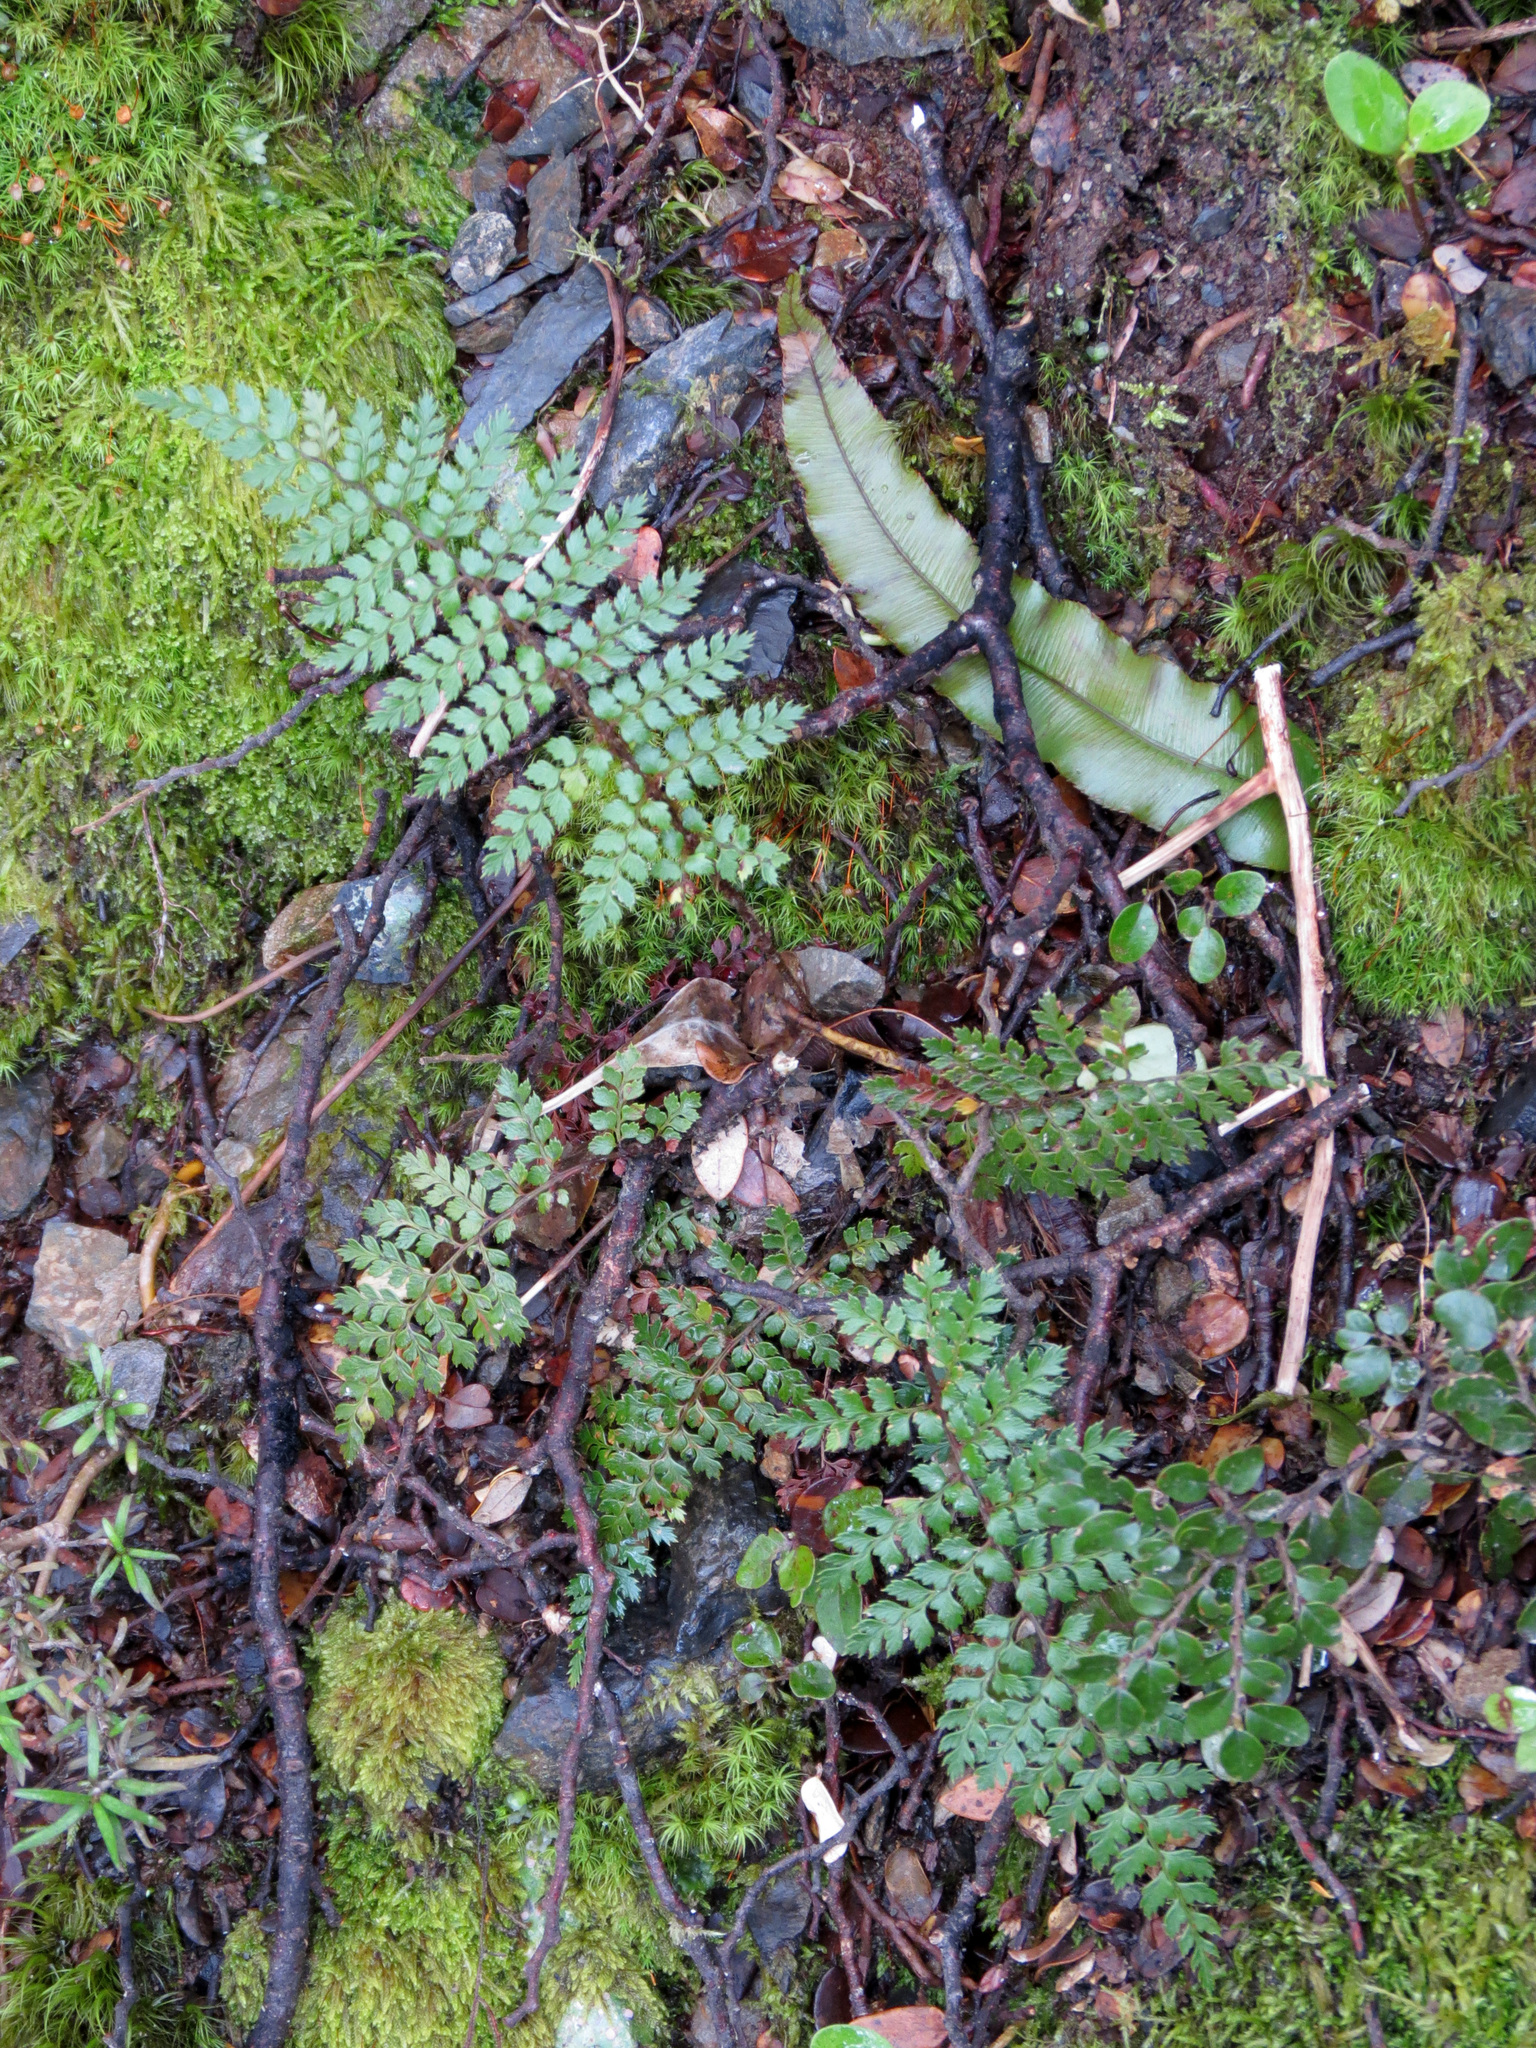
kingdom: Plantae
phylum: Tracheophyta
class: Polypodiopsida
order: Polypodiales
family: Dryopteridaceae
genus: Polystichum
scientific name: Polystichum vestitum
